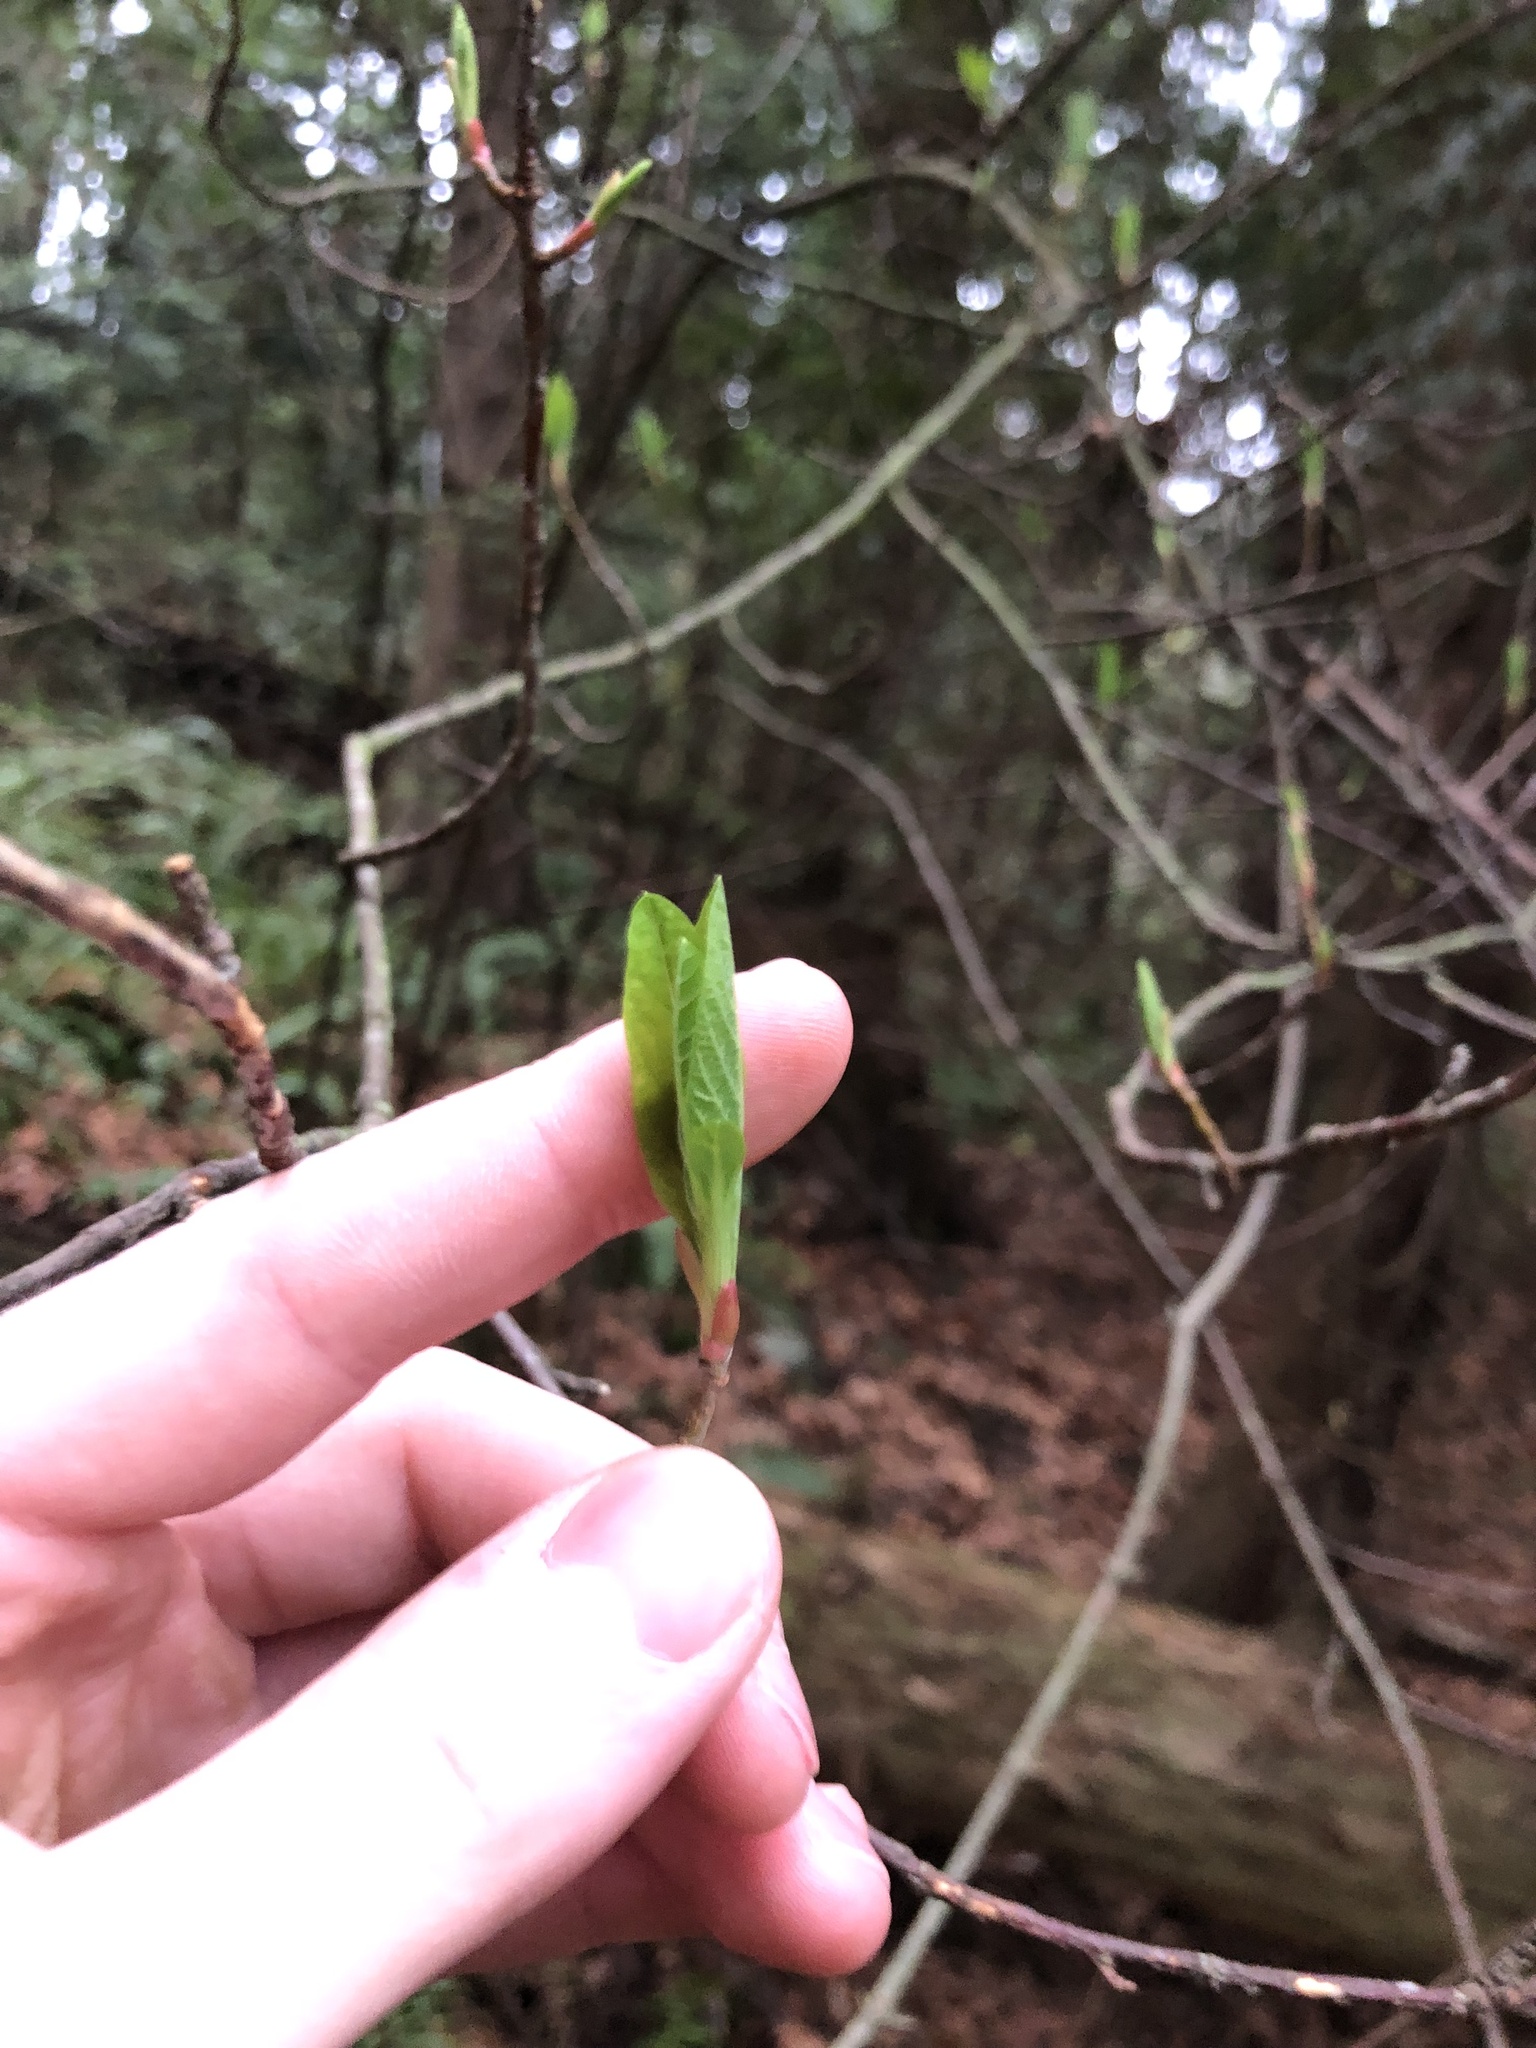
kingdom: Plantae
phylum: Tracheophyta
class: Magnoliopsida
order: Rosales
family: Rosaceae
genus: Oemleria
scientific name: Oemleria cerasiformis
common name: Osoberry
